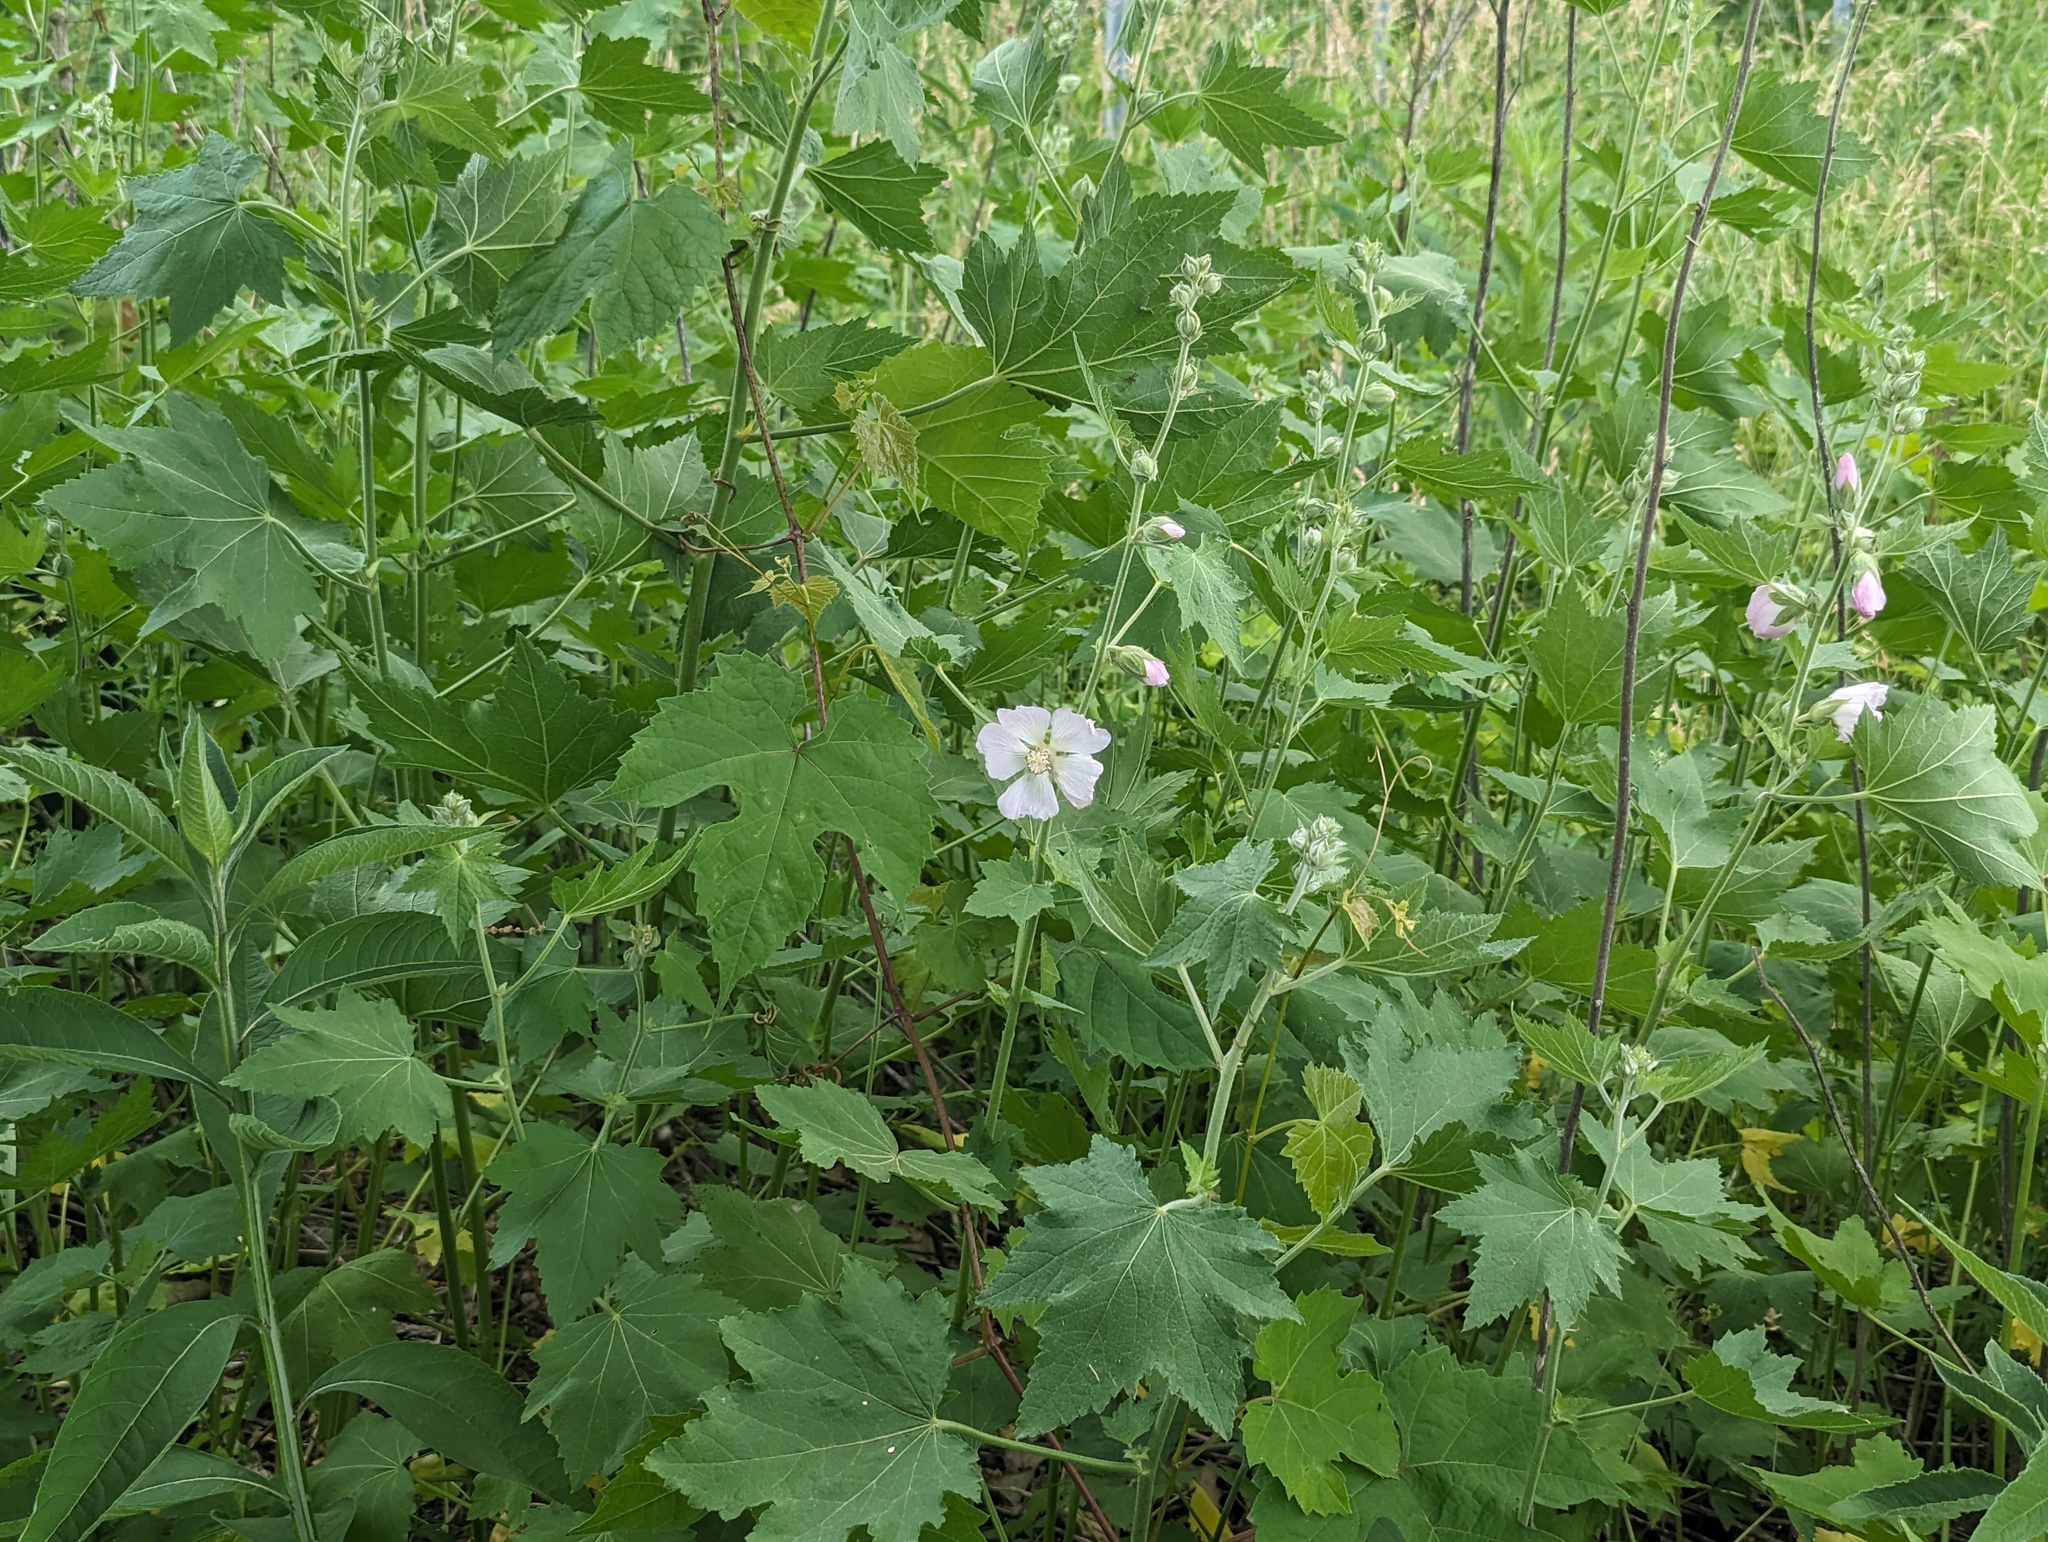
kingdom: Plantae
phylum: Tracheophyta
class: Magnoliopsida
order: Malvales
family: Malvaceae
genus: Iliamna
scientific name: Iliamna remota
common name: Kankakee globe-mallow
